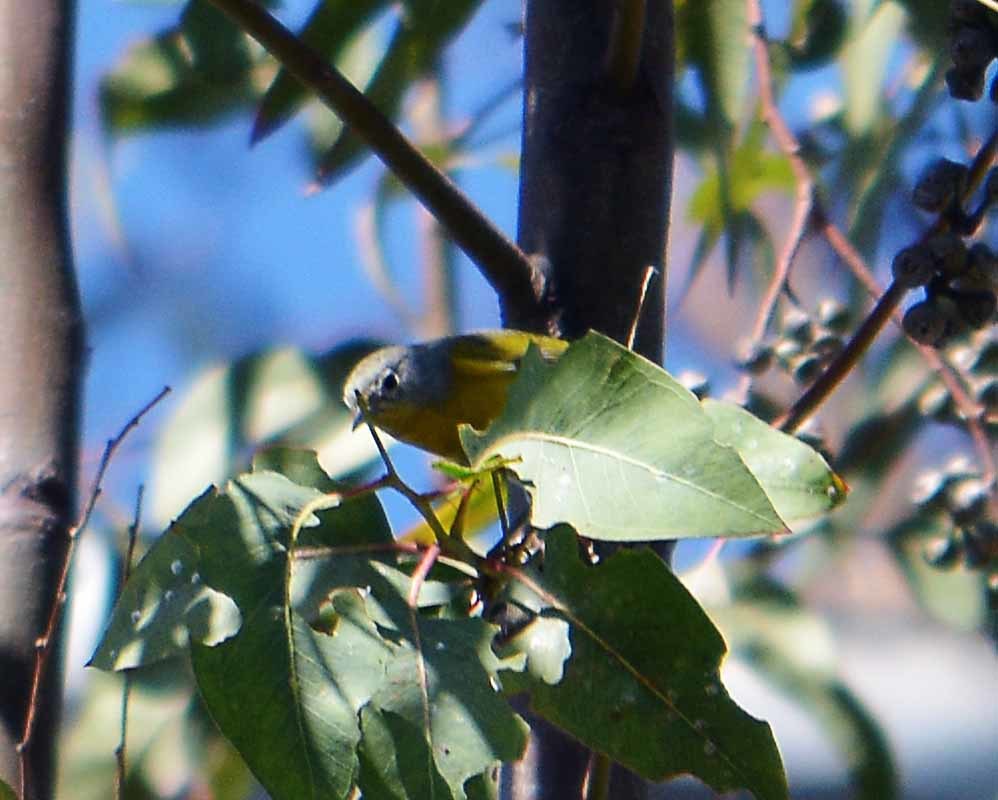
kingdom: Animalia
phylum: Chordata
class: Aves
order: Passeriformes
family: Parulidae
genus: Leiothlypis
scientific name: Leiothlypis ruficapilla
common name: Nashville warbler
